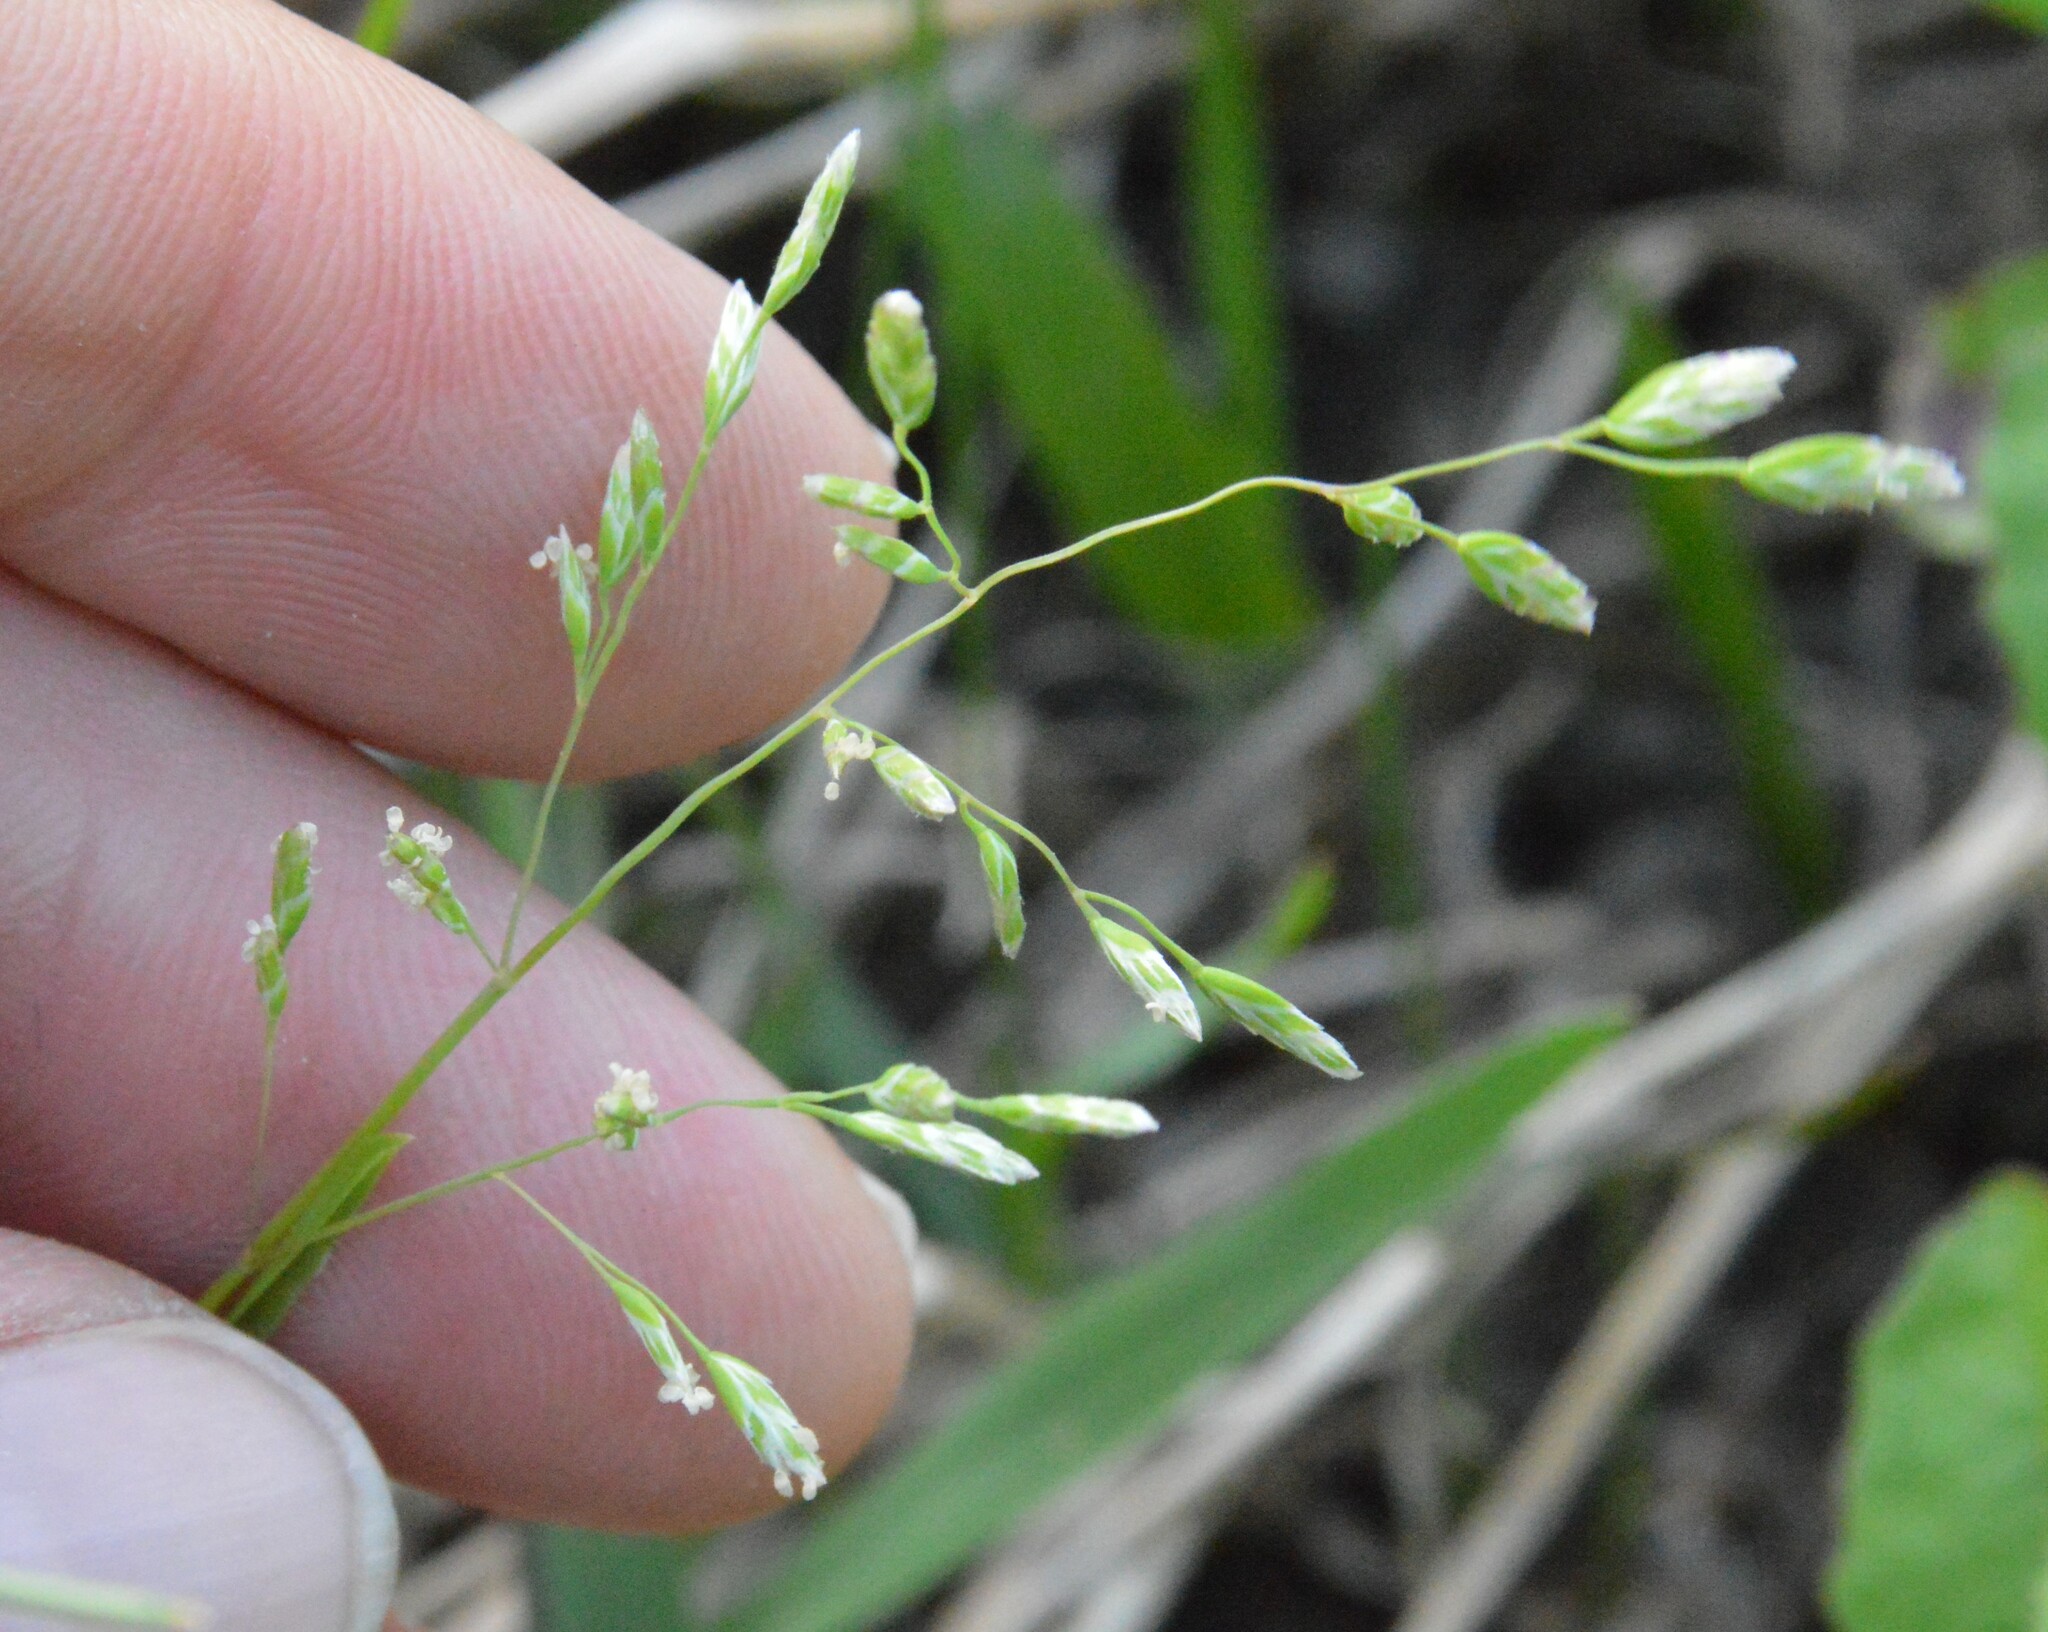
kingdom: Plantae
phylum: Tracheophyta
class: Liliopsida
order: Poales
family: Poaceae
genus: Poa
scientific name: Poa annua
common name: Annual bluegrass
